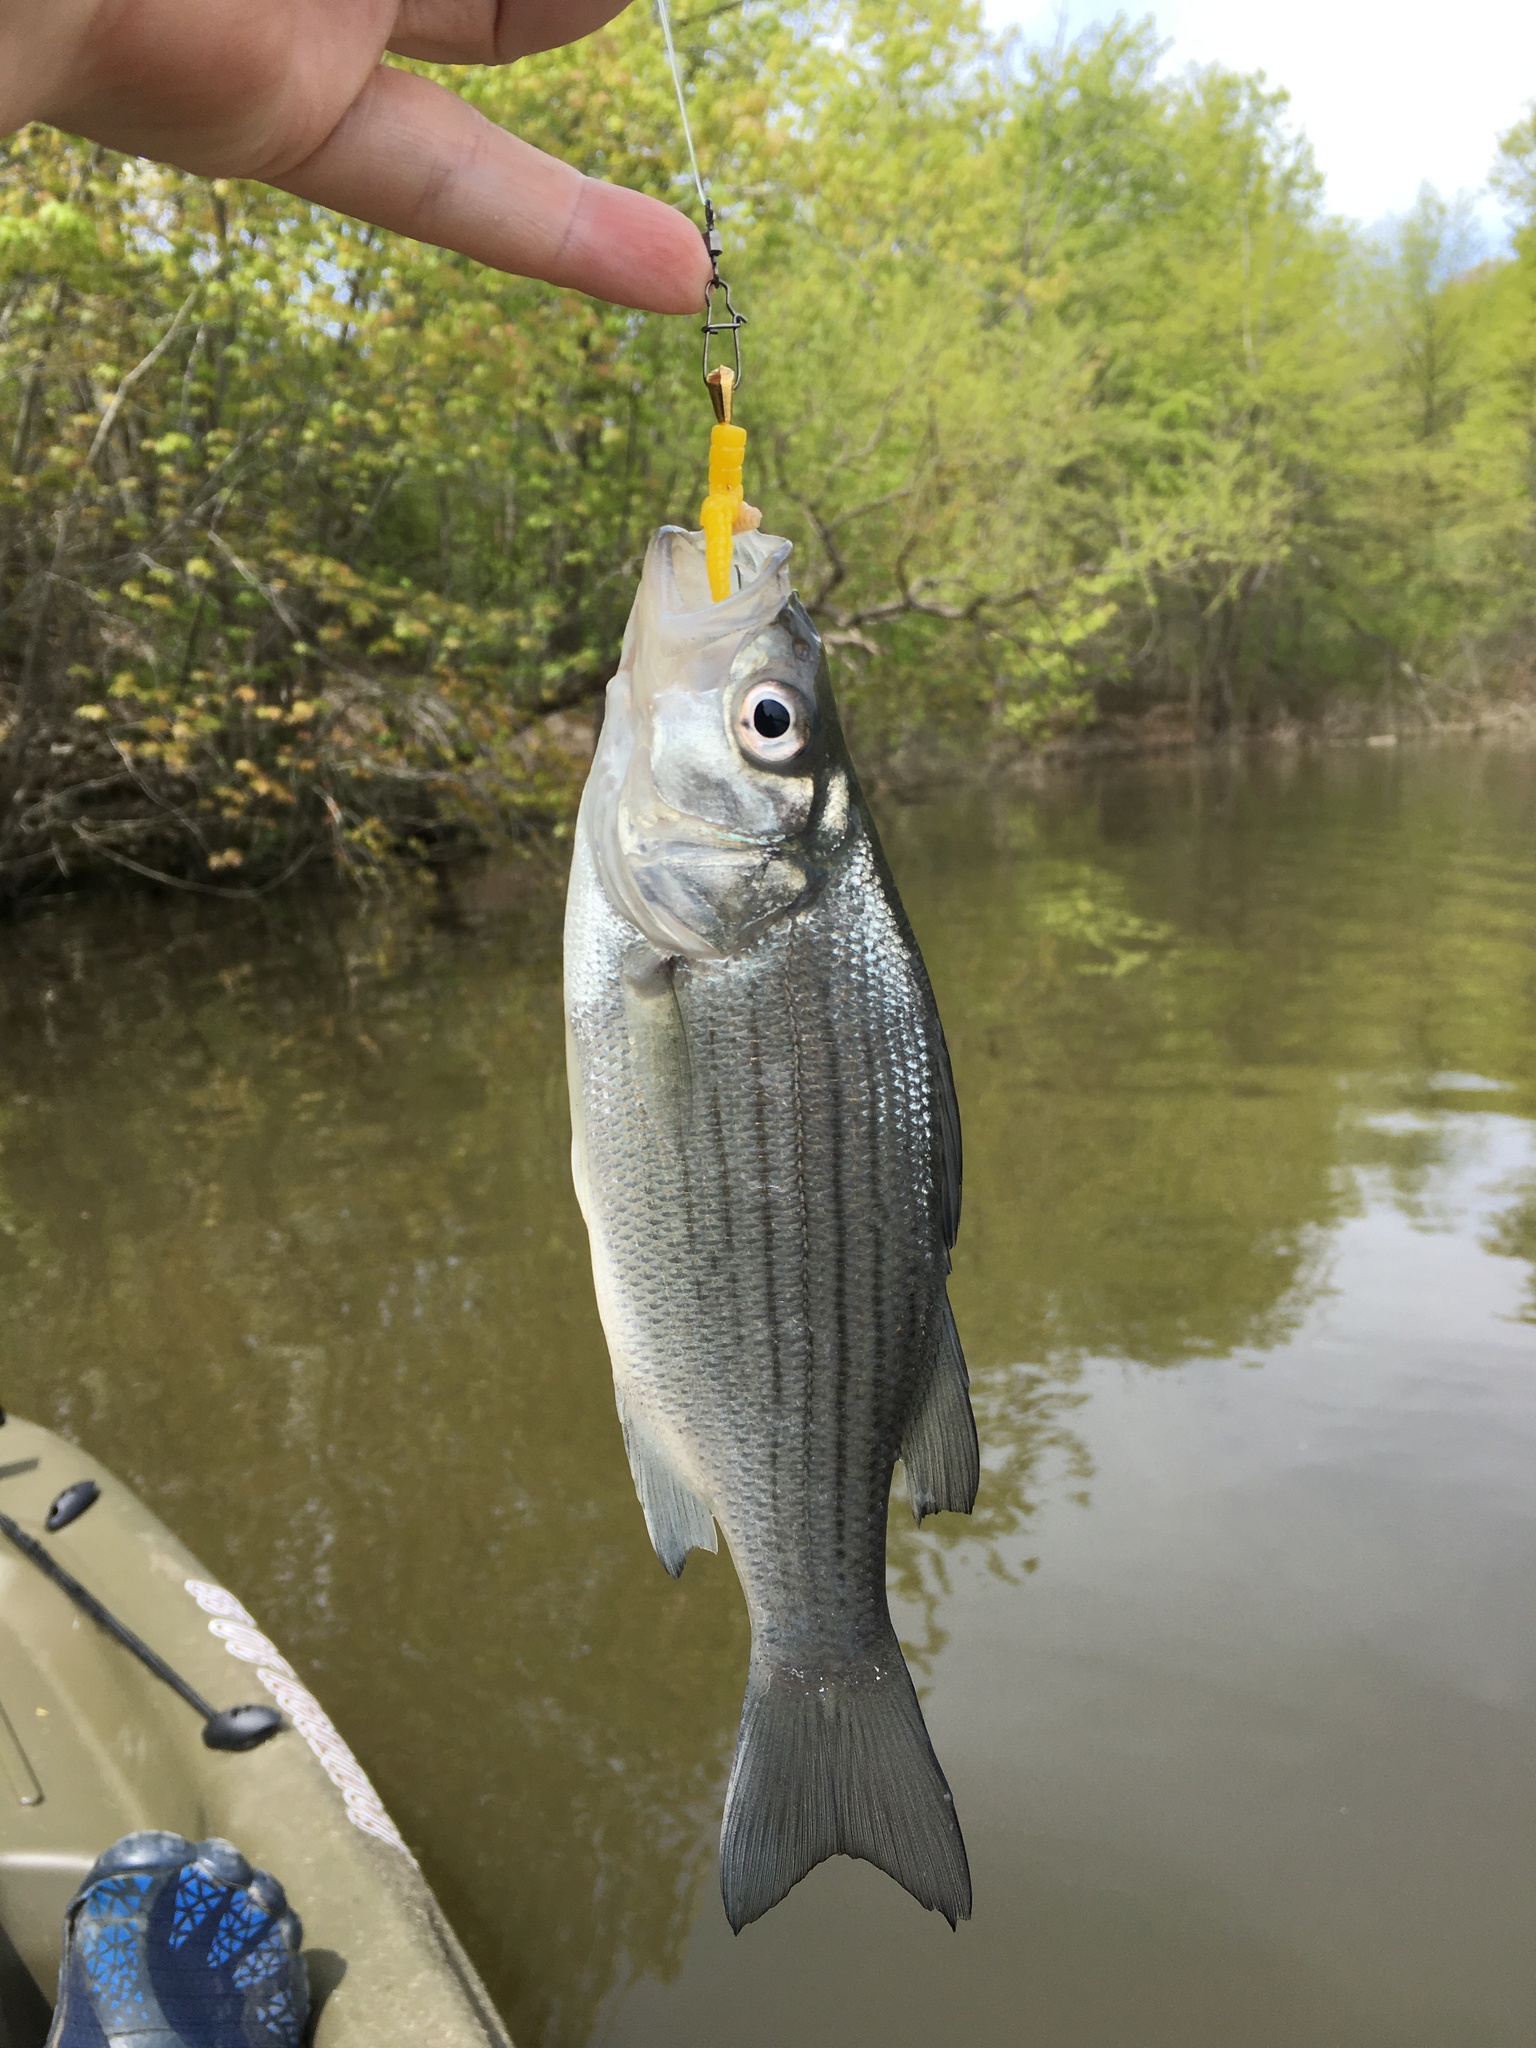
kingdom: Animalia
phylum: Chordata
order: Perciformes
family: Moronidae
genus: Morone
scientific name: Morone chrysops
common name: White bass
